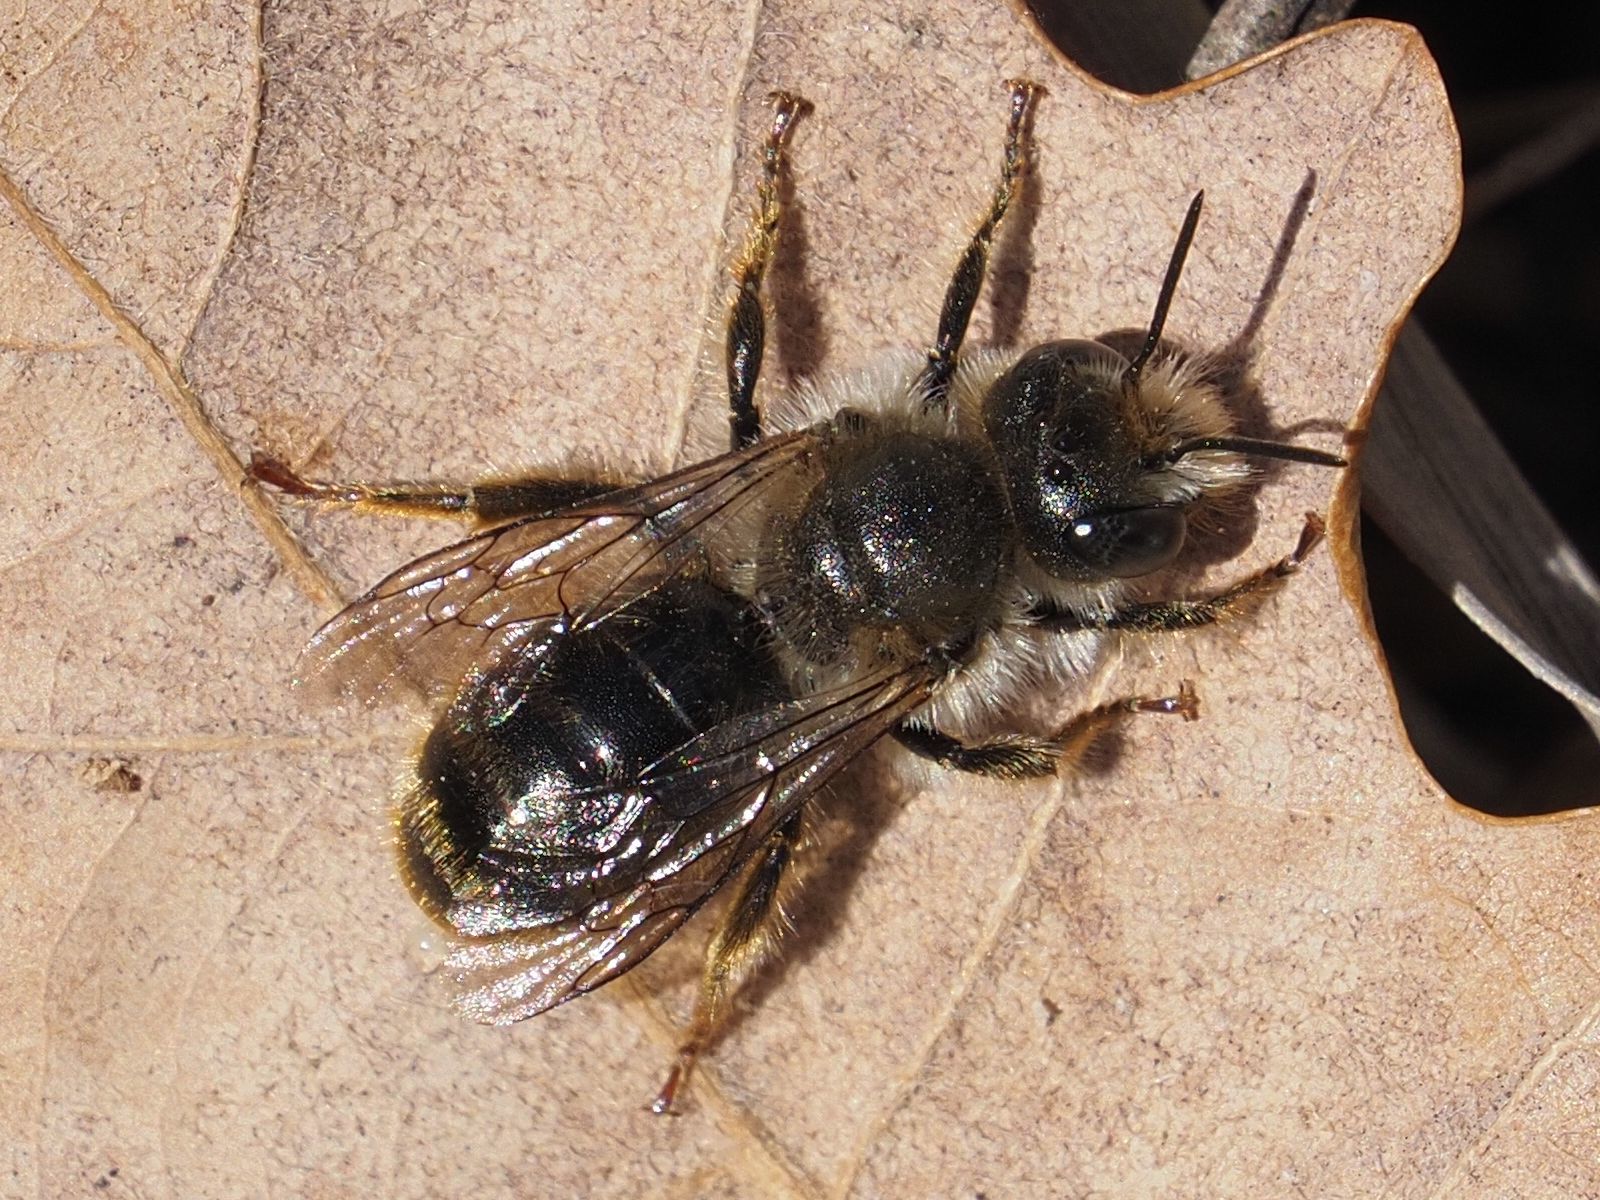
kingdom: Animalia
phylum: Arthropoda
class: Insecta
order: Hymenoptera
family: Megachilidae
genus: Osmia
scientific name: Osmia bicolor
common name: Red-tailed mason bee
